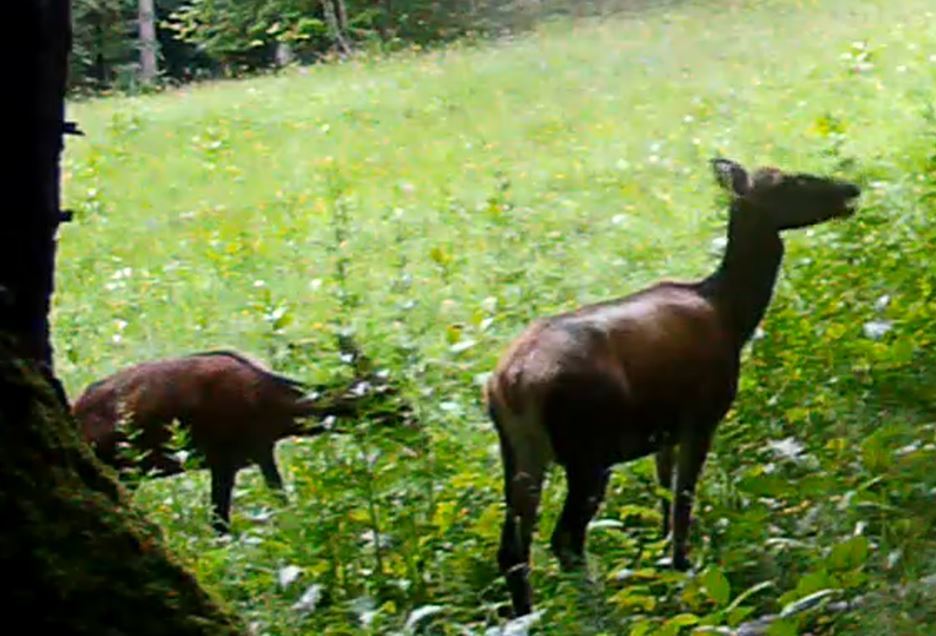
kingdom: Animalia
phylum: Chordata
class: Mammalia
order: Artiodactyla
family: Cervidae
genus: Cervus
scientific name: Cervus elaphus
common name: Red deer
